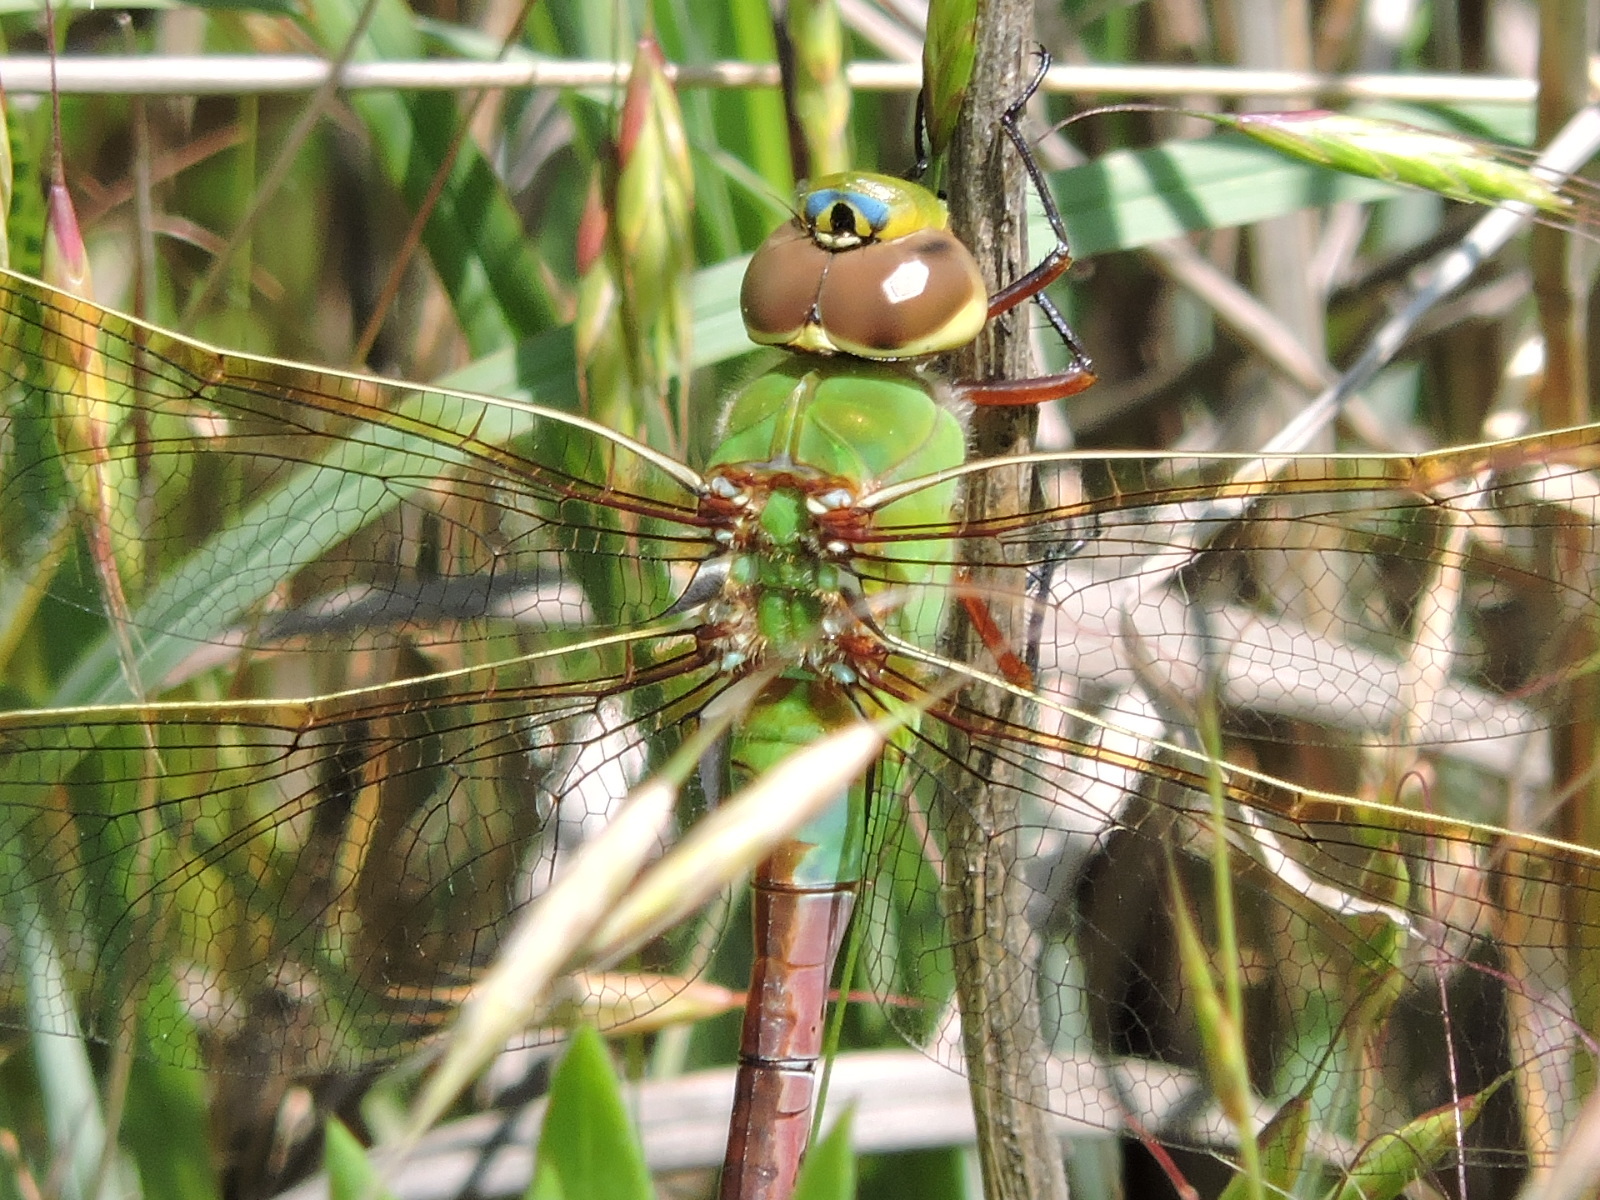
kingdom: Animalia
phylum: Arthropoda
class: Insecta
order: Odonata
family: Aeshnidae
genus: Anax
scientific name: Anax junius
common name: Common green darner
